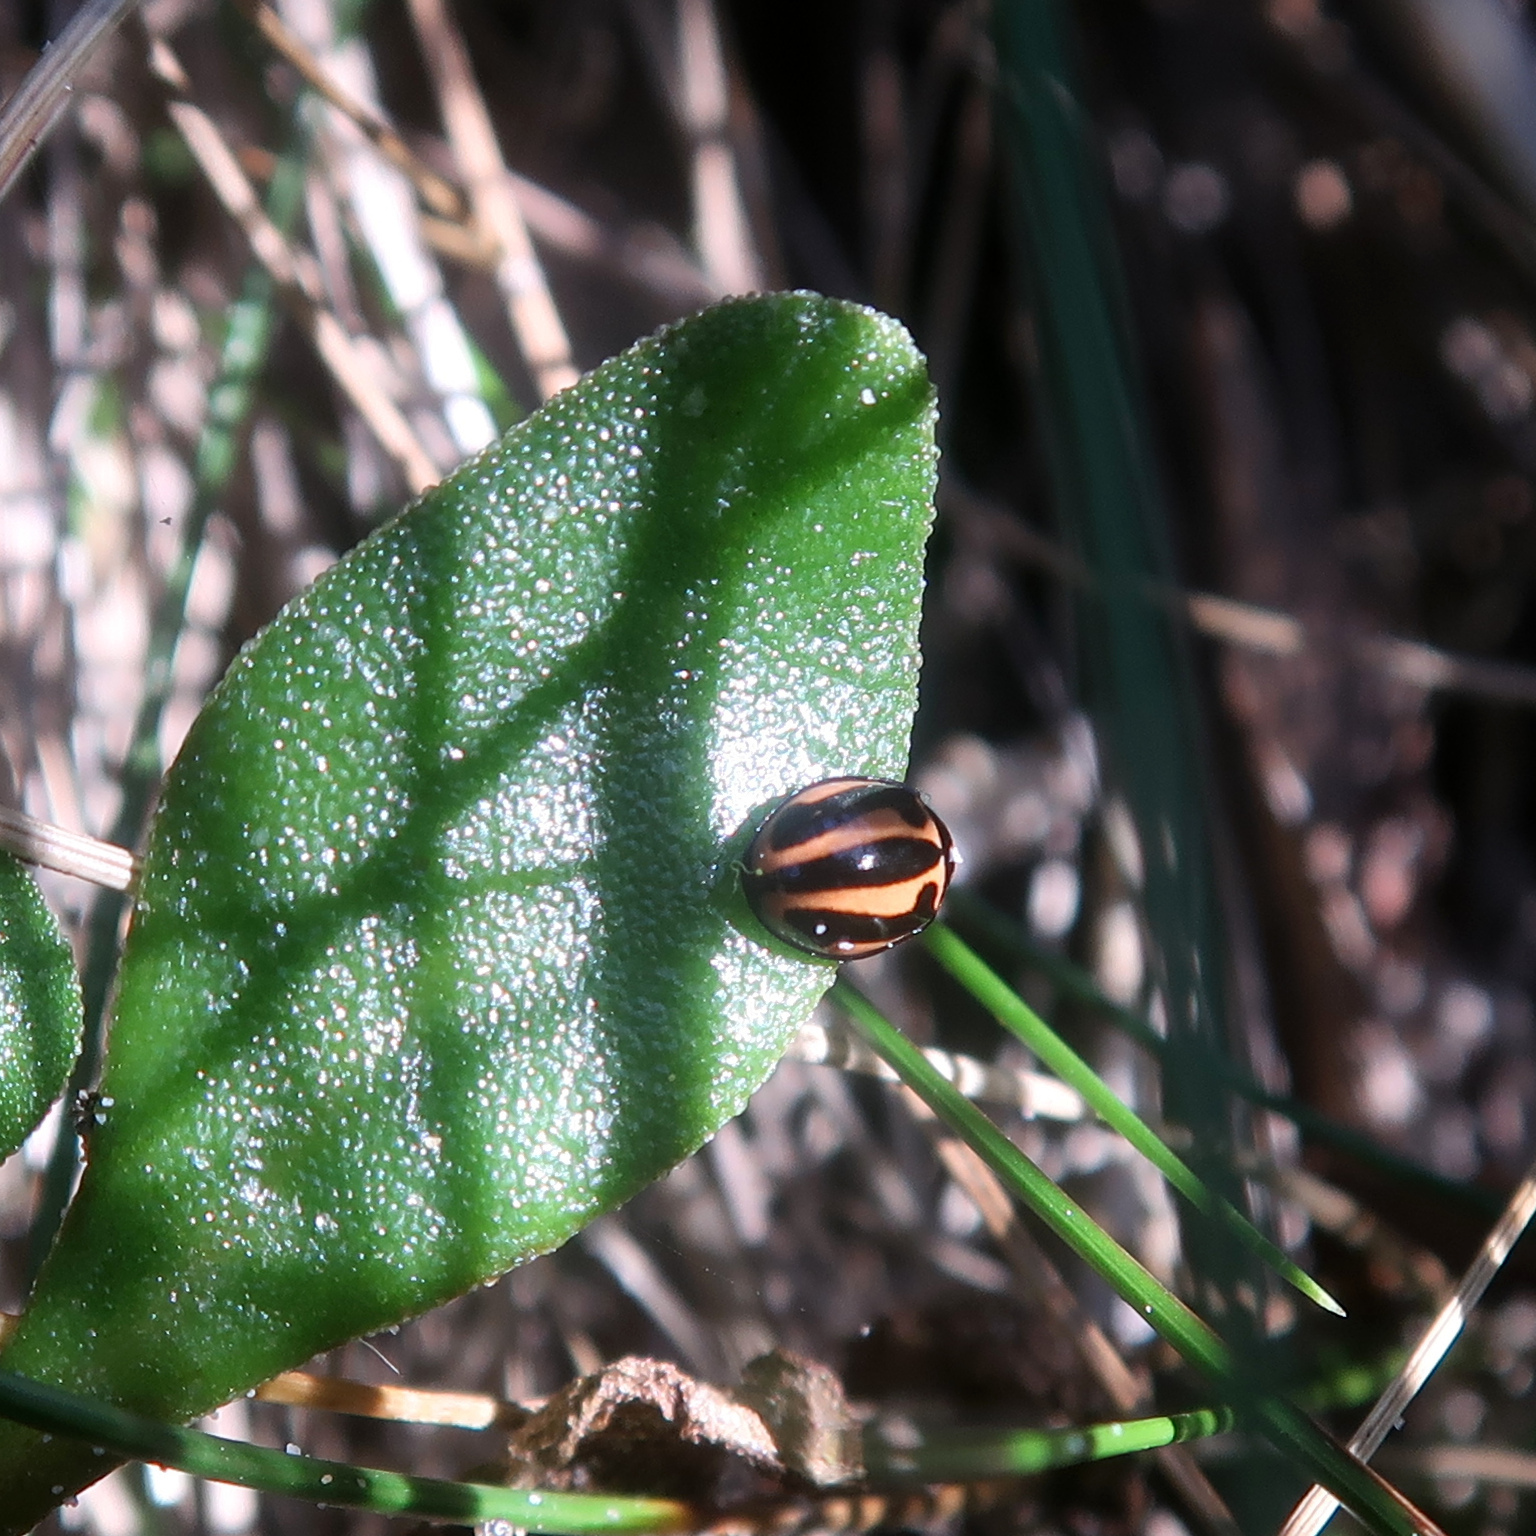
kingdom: Animalia
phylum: Arthropoda
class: Insecta
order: Coleoptera
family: Coccinellidae
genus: Micraspis
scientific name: Micraspis frenata
